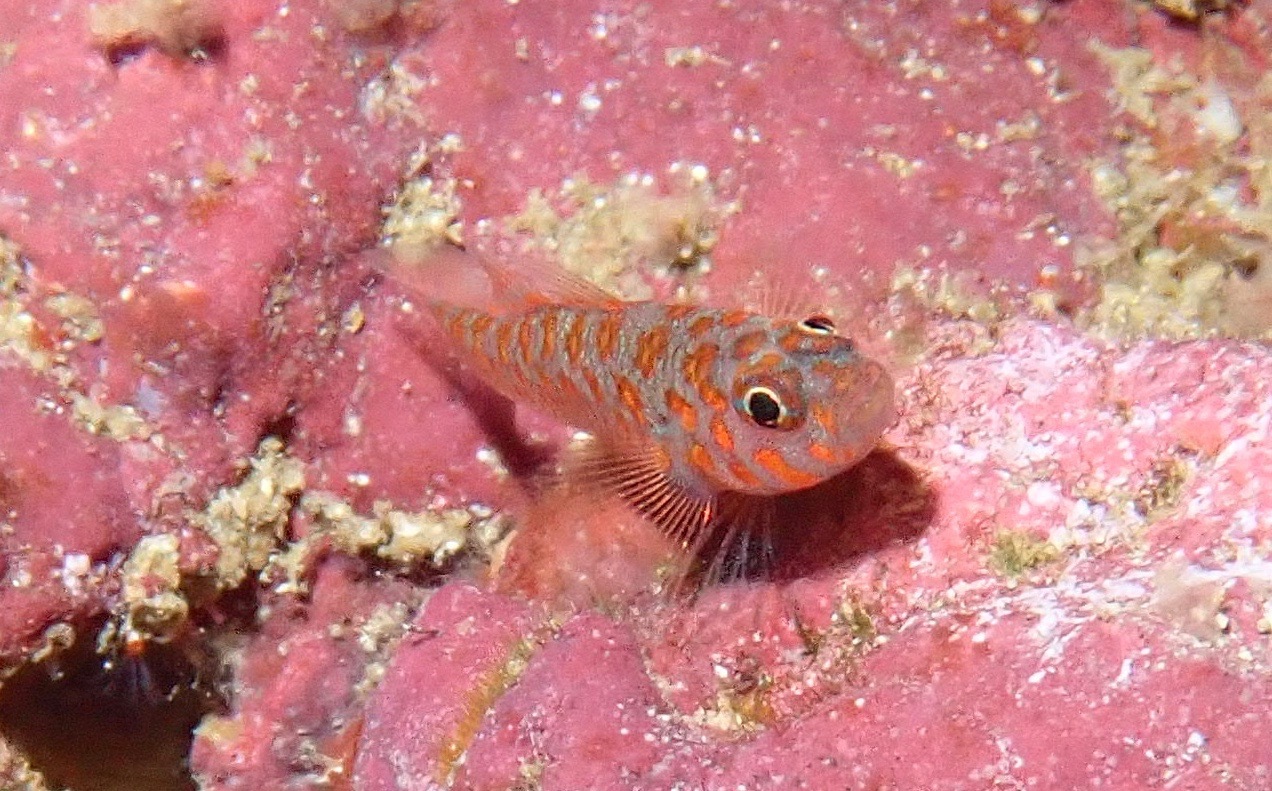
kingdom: Animalia
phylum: Chordata
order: Perciformes
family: Gobiidae
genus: Trimma
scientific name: Trimma ukkriti
